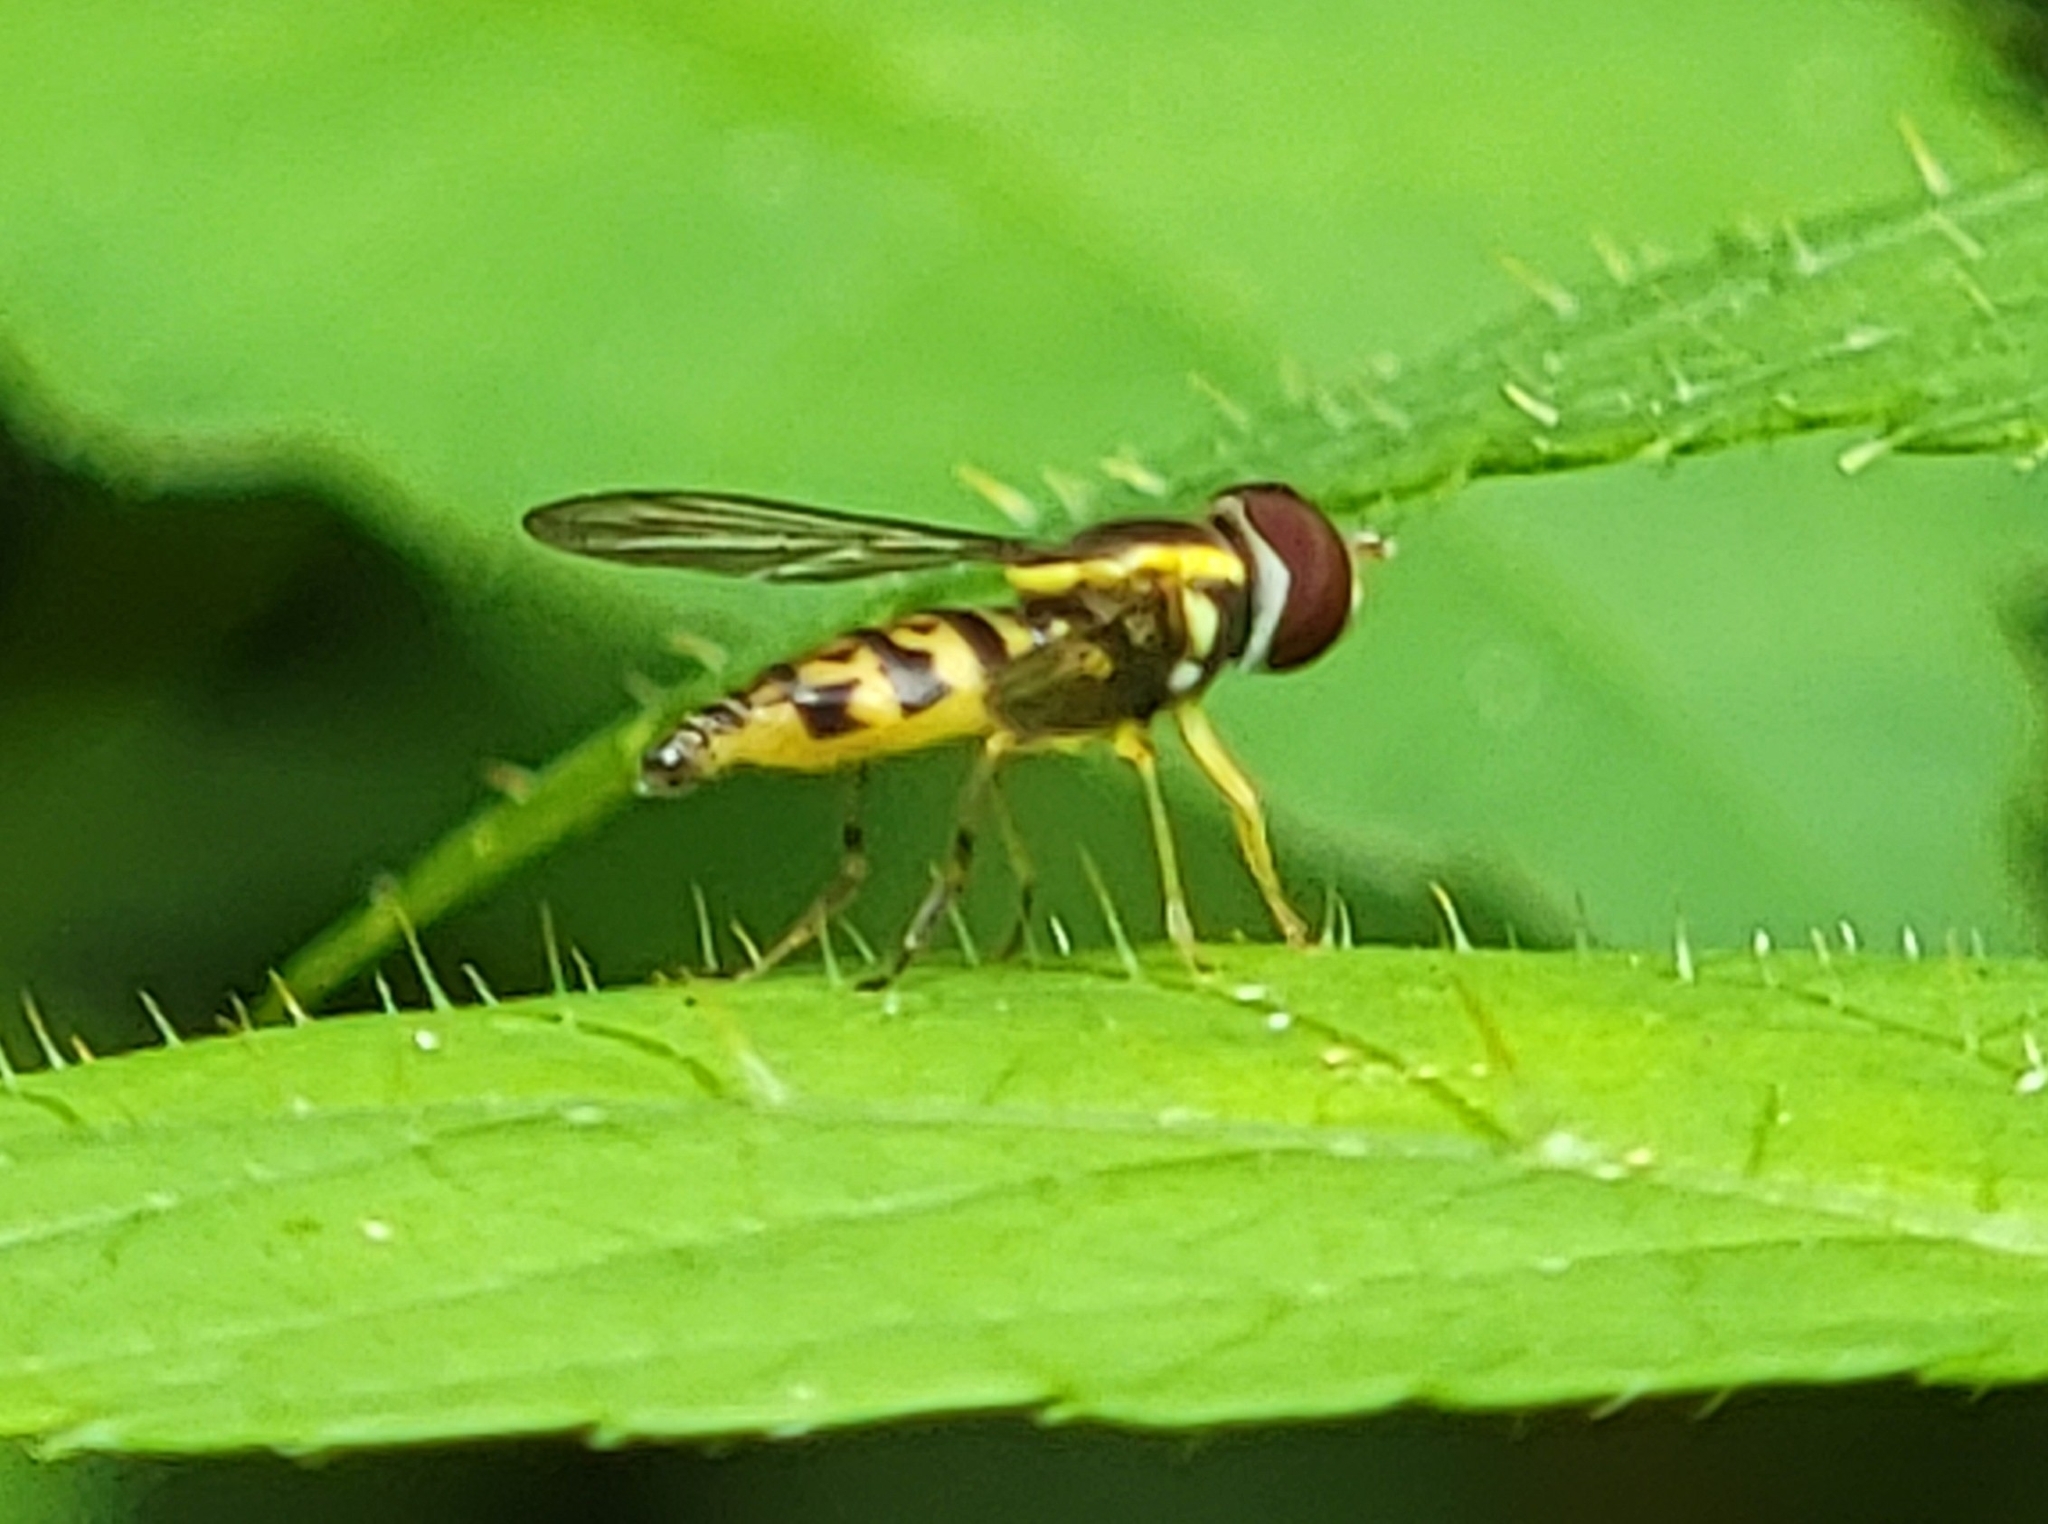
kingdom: Animalia
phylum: Arthropoda
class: Insecta
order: Diptera
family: Syrphidae
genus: Toxomerus
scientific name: Toxomerus geminatus
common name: Eastern calligrapher
